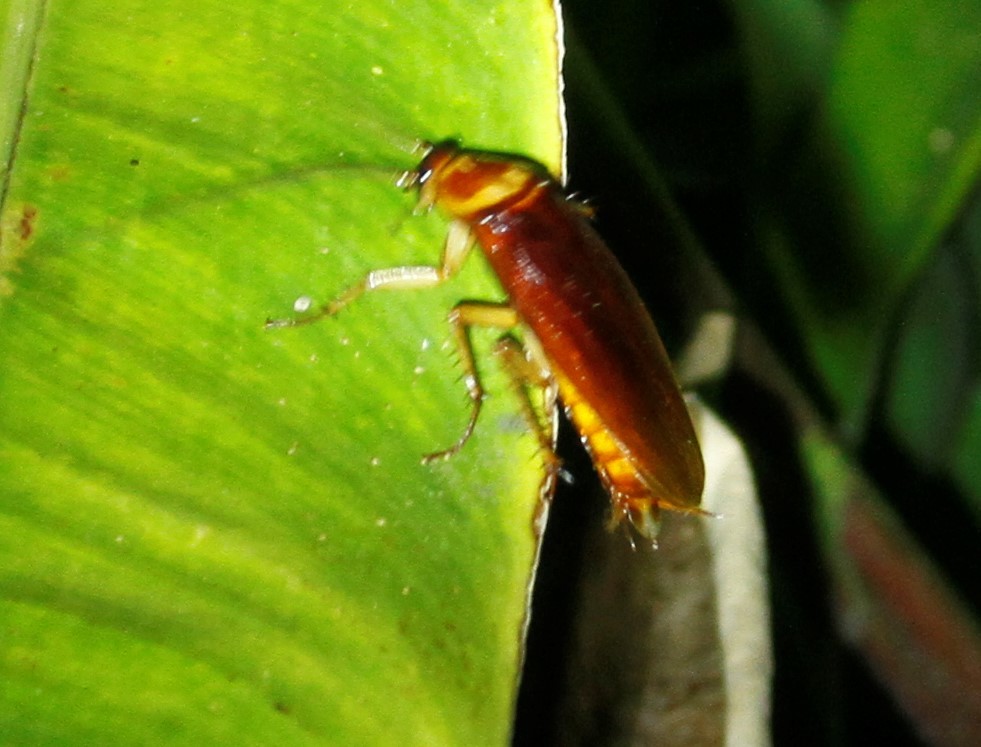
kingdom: Animalia
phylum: Arthropoda
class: Insecta
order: Blattodea
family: Blattidae
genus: Periplaneta
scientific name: Periplaneta americana
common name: American cockroach
